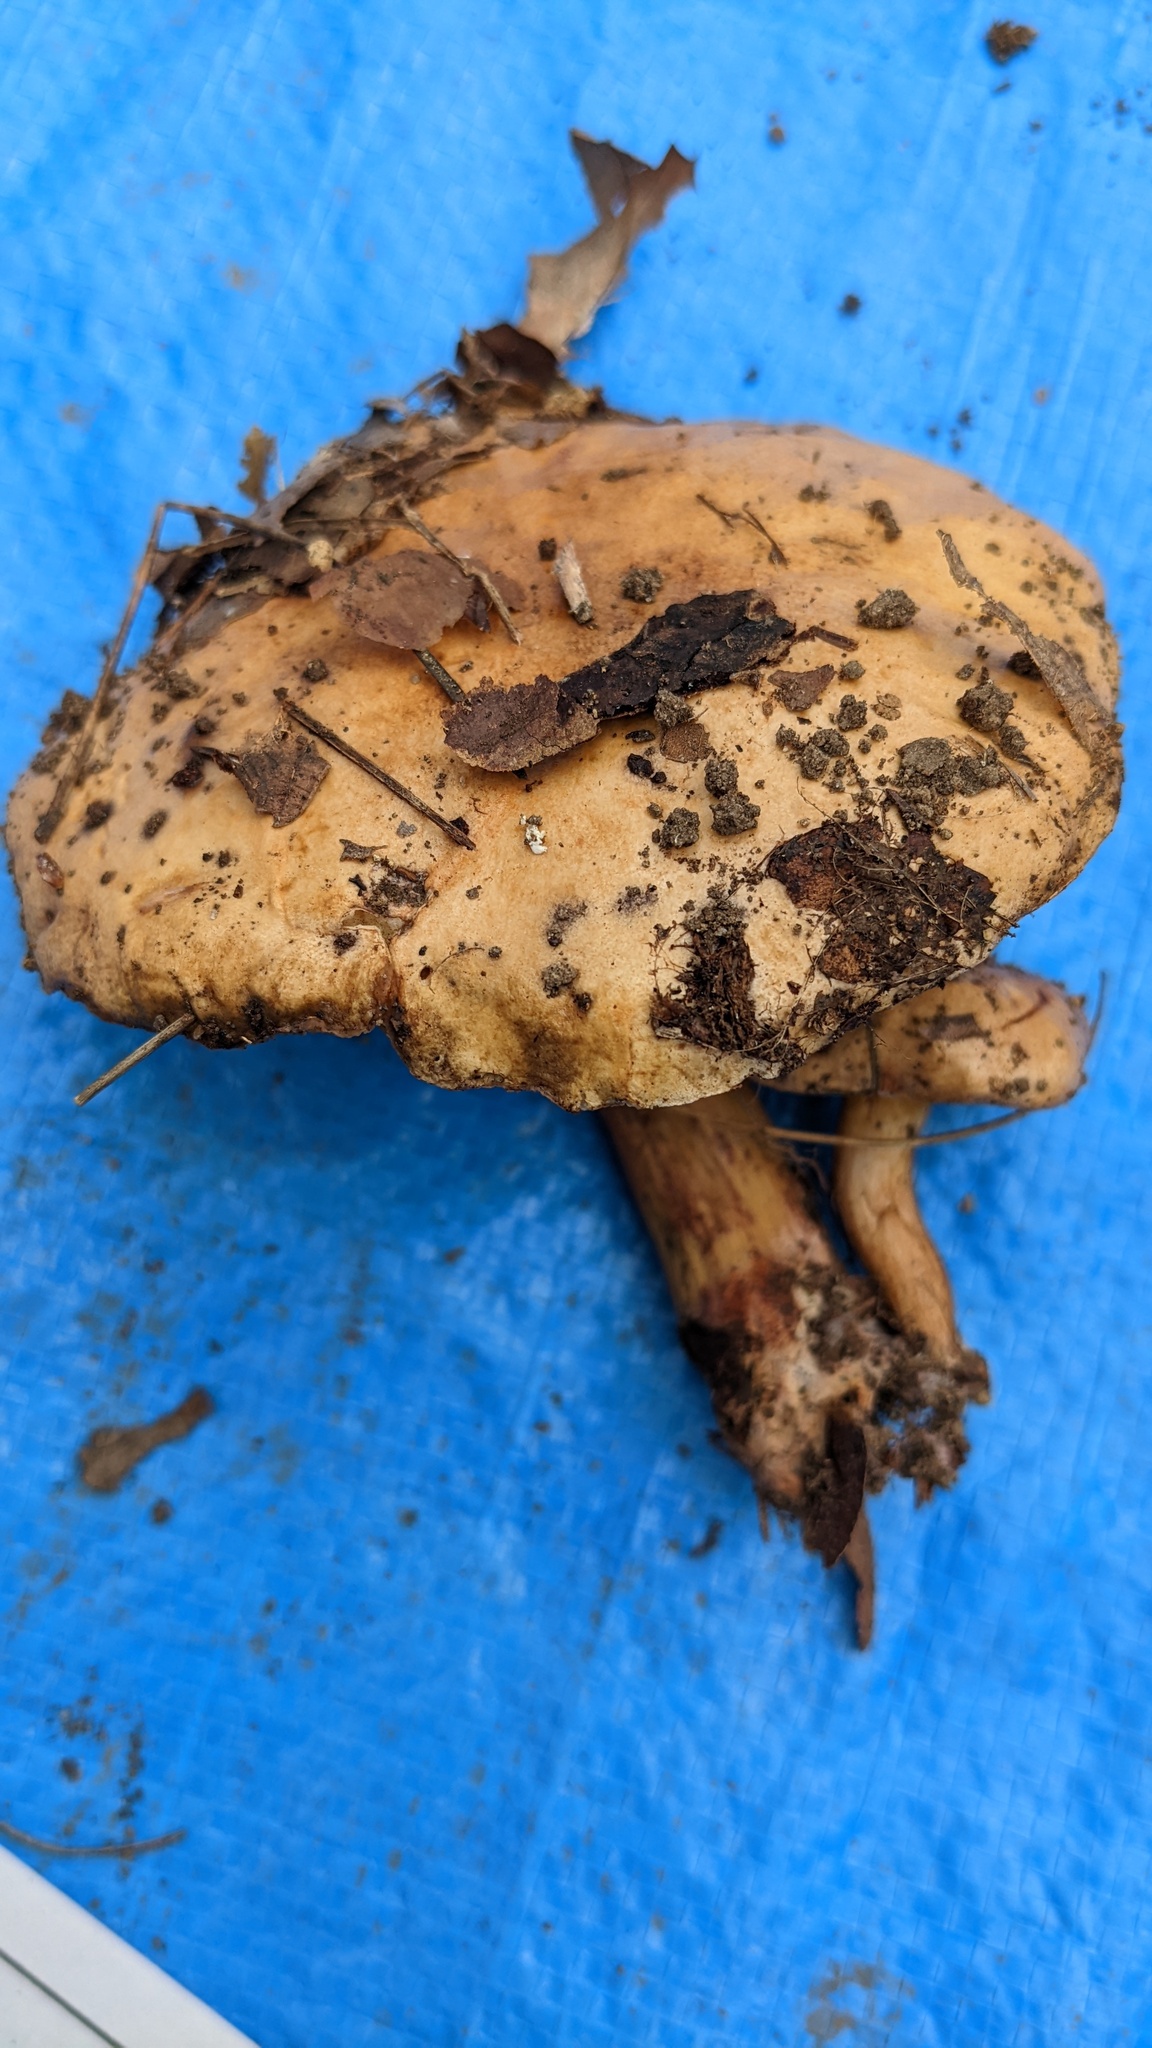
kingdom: Fungi
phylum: Basidiomycota
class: Agaricomycetes
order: Boletales
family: Suillaceae
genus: Suillus
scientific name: Suillus bovinus
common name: Bovine bolete
